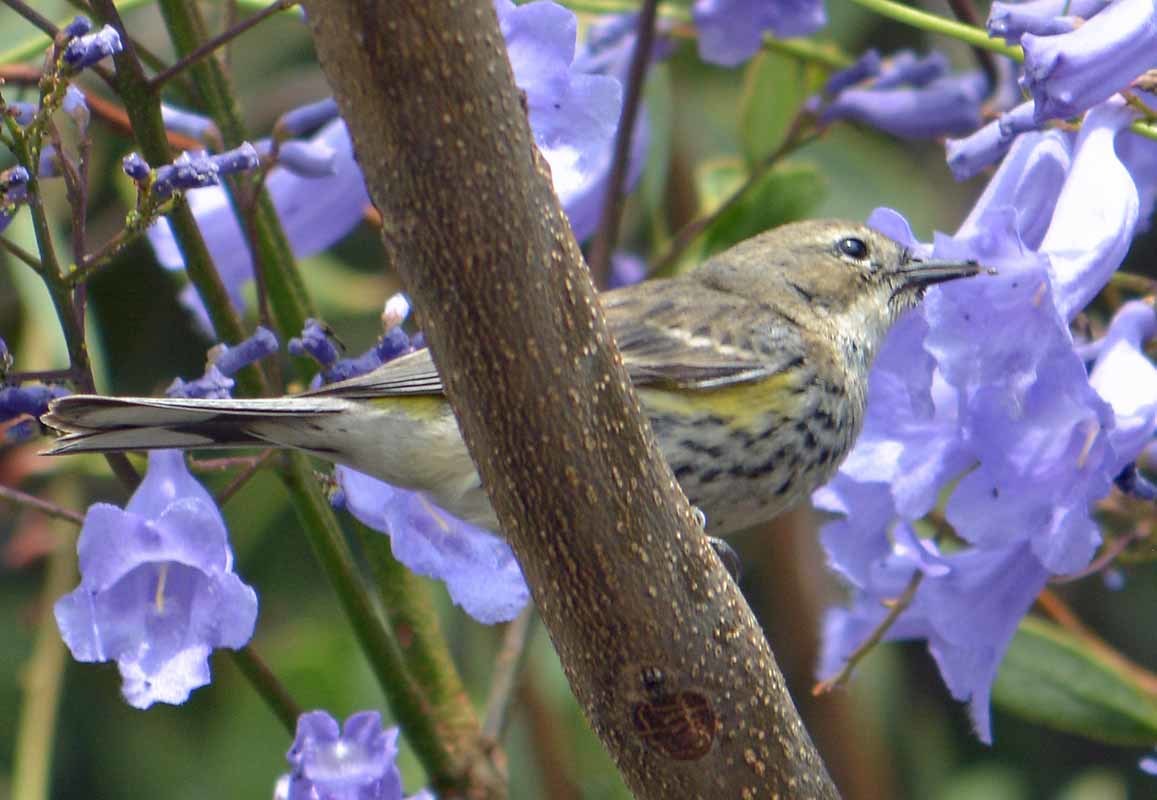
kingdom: Animalia
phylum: Chordata
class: Aves
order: Passeriformes
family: Parulidae
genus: Setophaga
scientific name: Setophaga coronata
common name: Myrtle warbler
